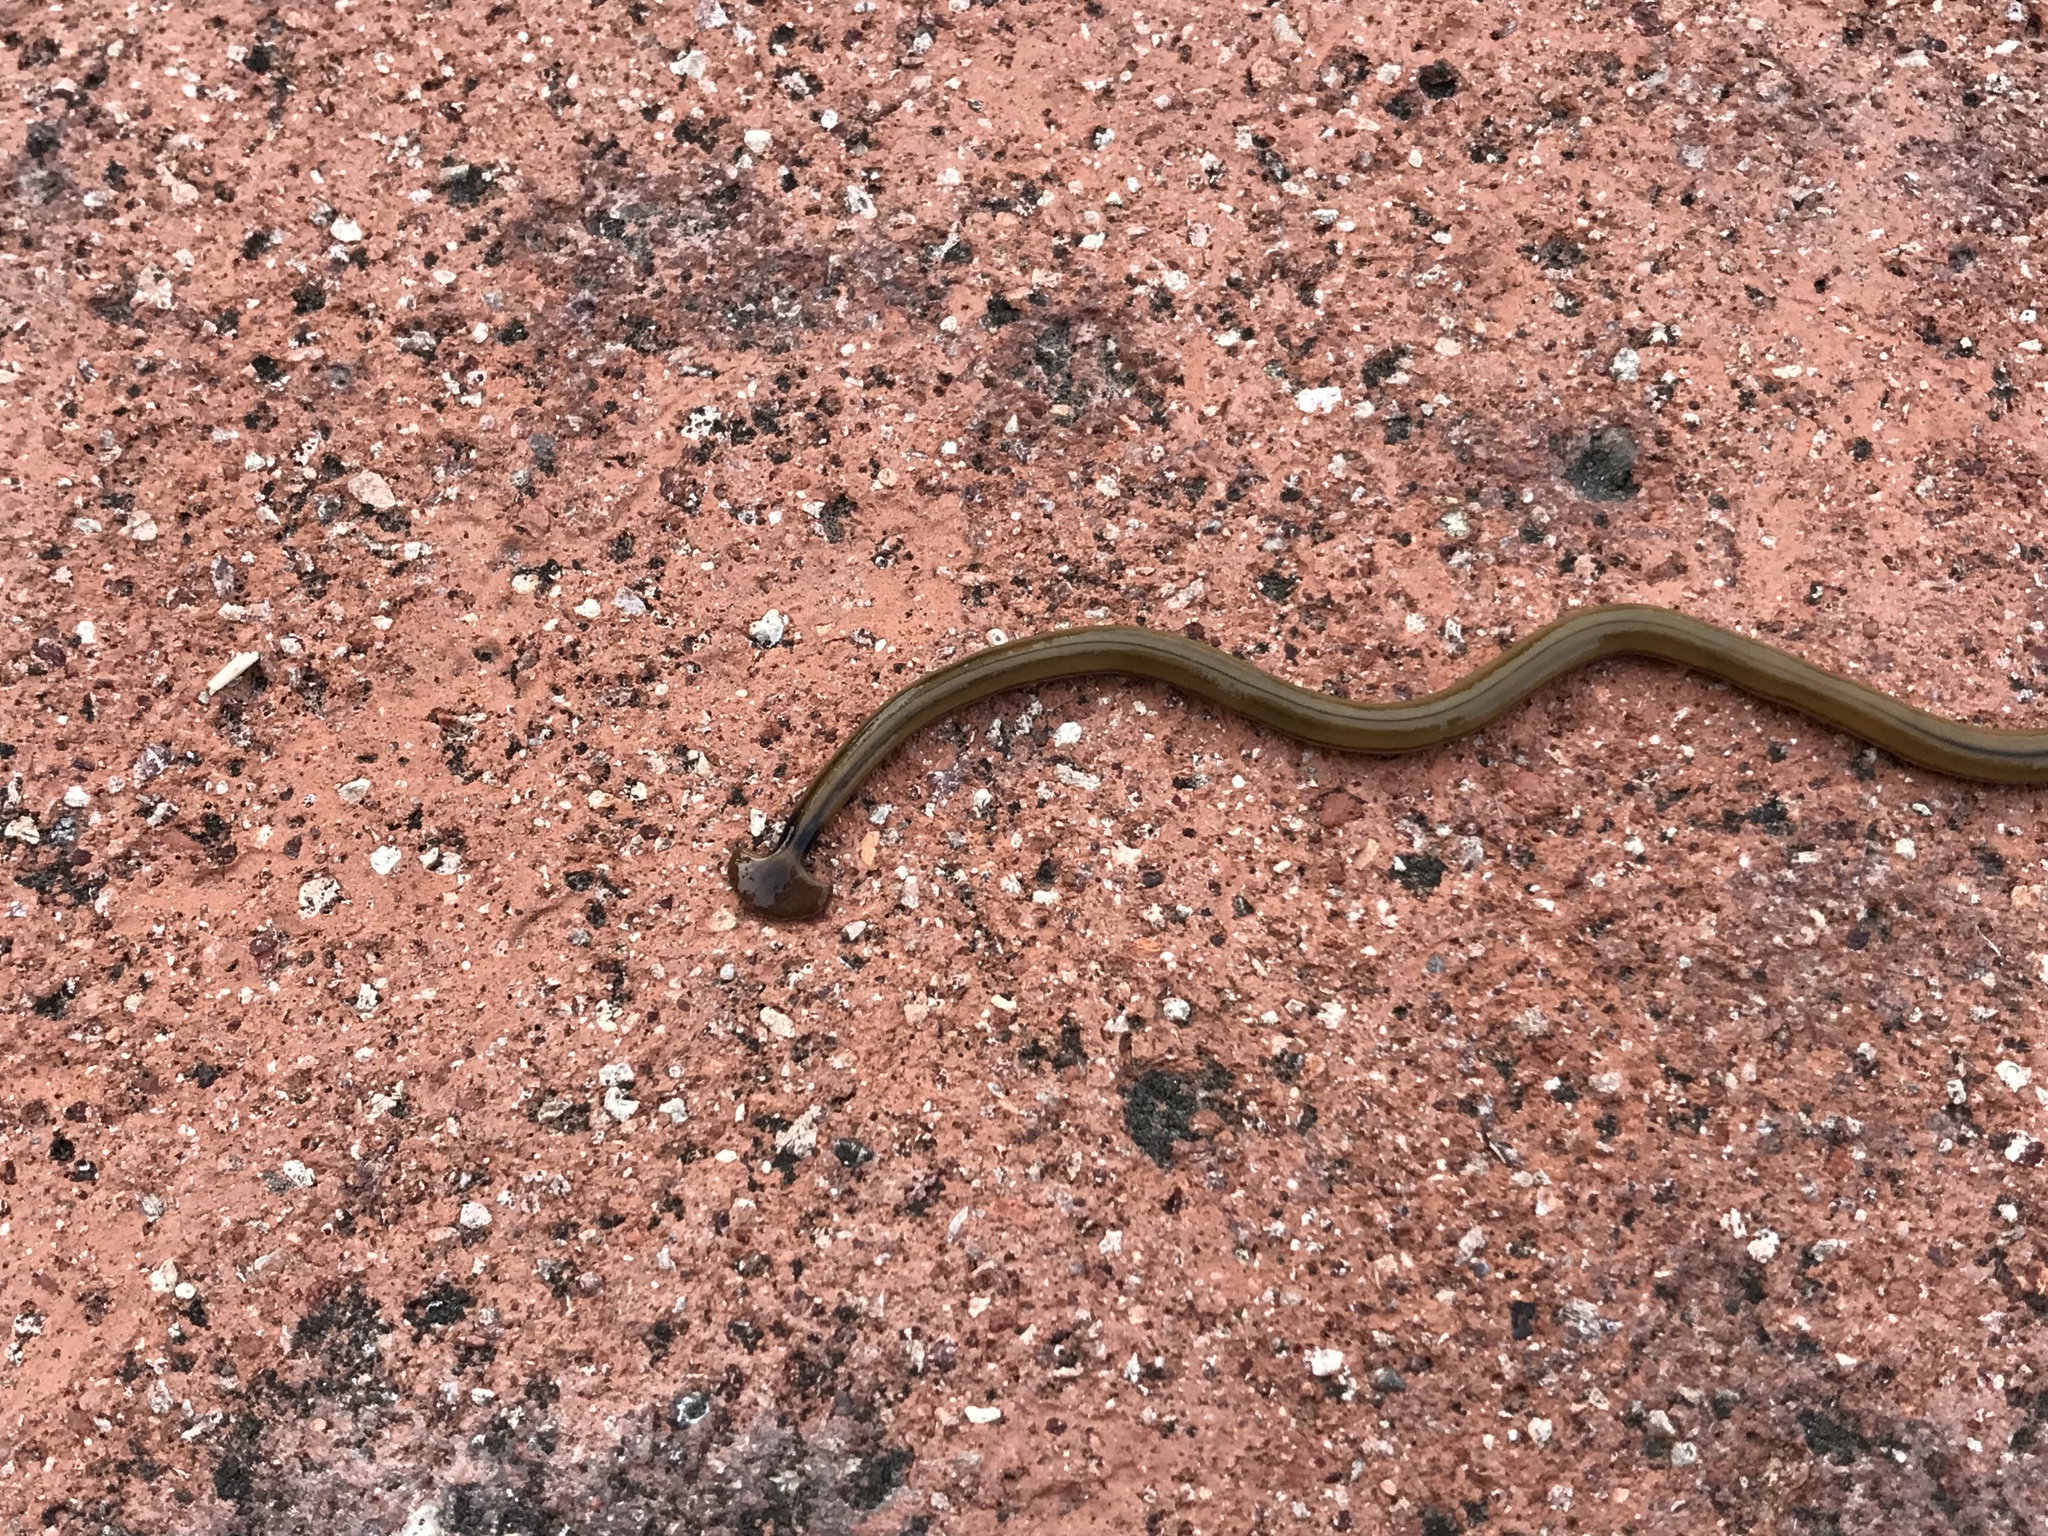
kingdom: Animalia
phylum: Platyhelminthes
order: Tricladida
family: Geoplanidae
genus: Bipalium
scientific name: Bipalium kewense
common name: Hammerhead flatworm
